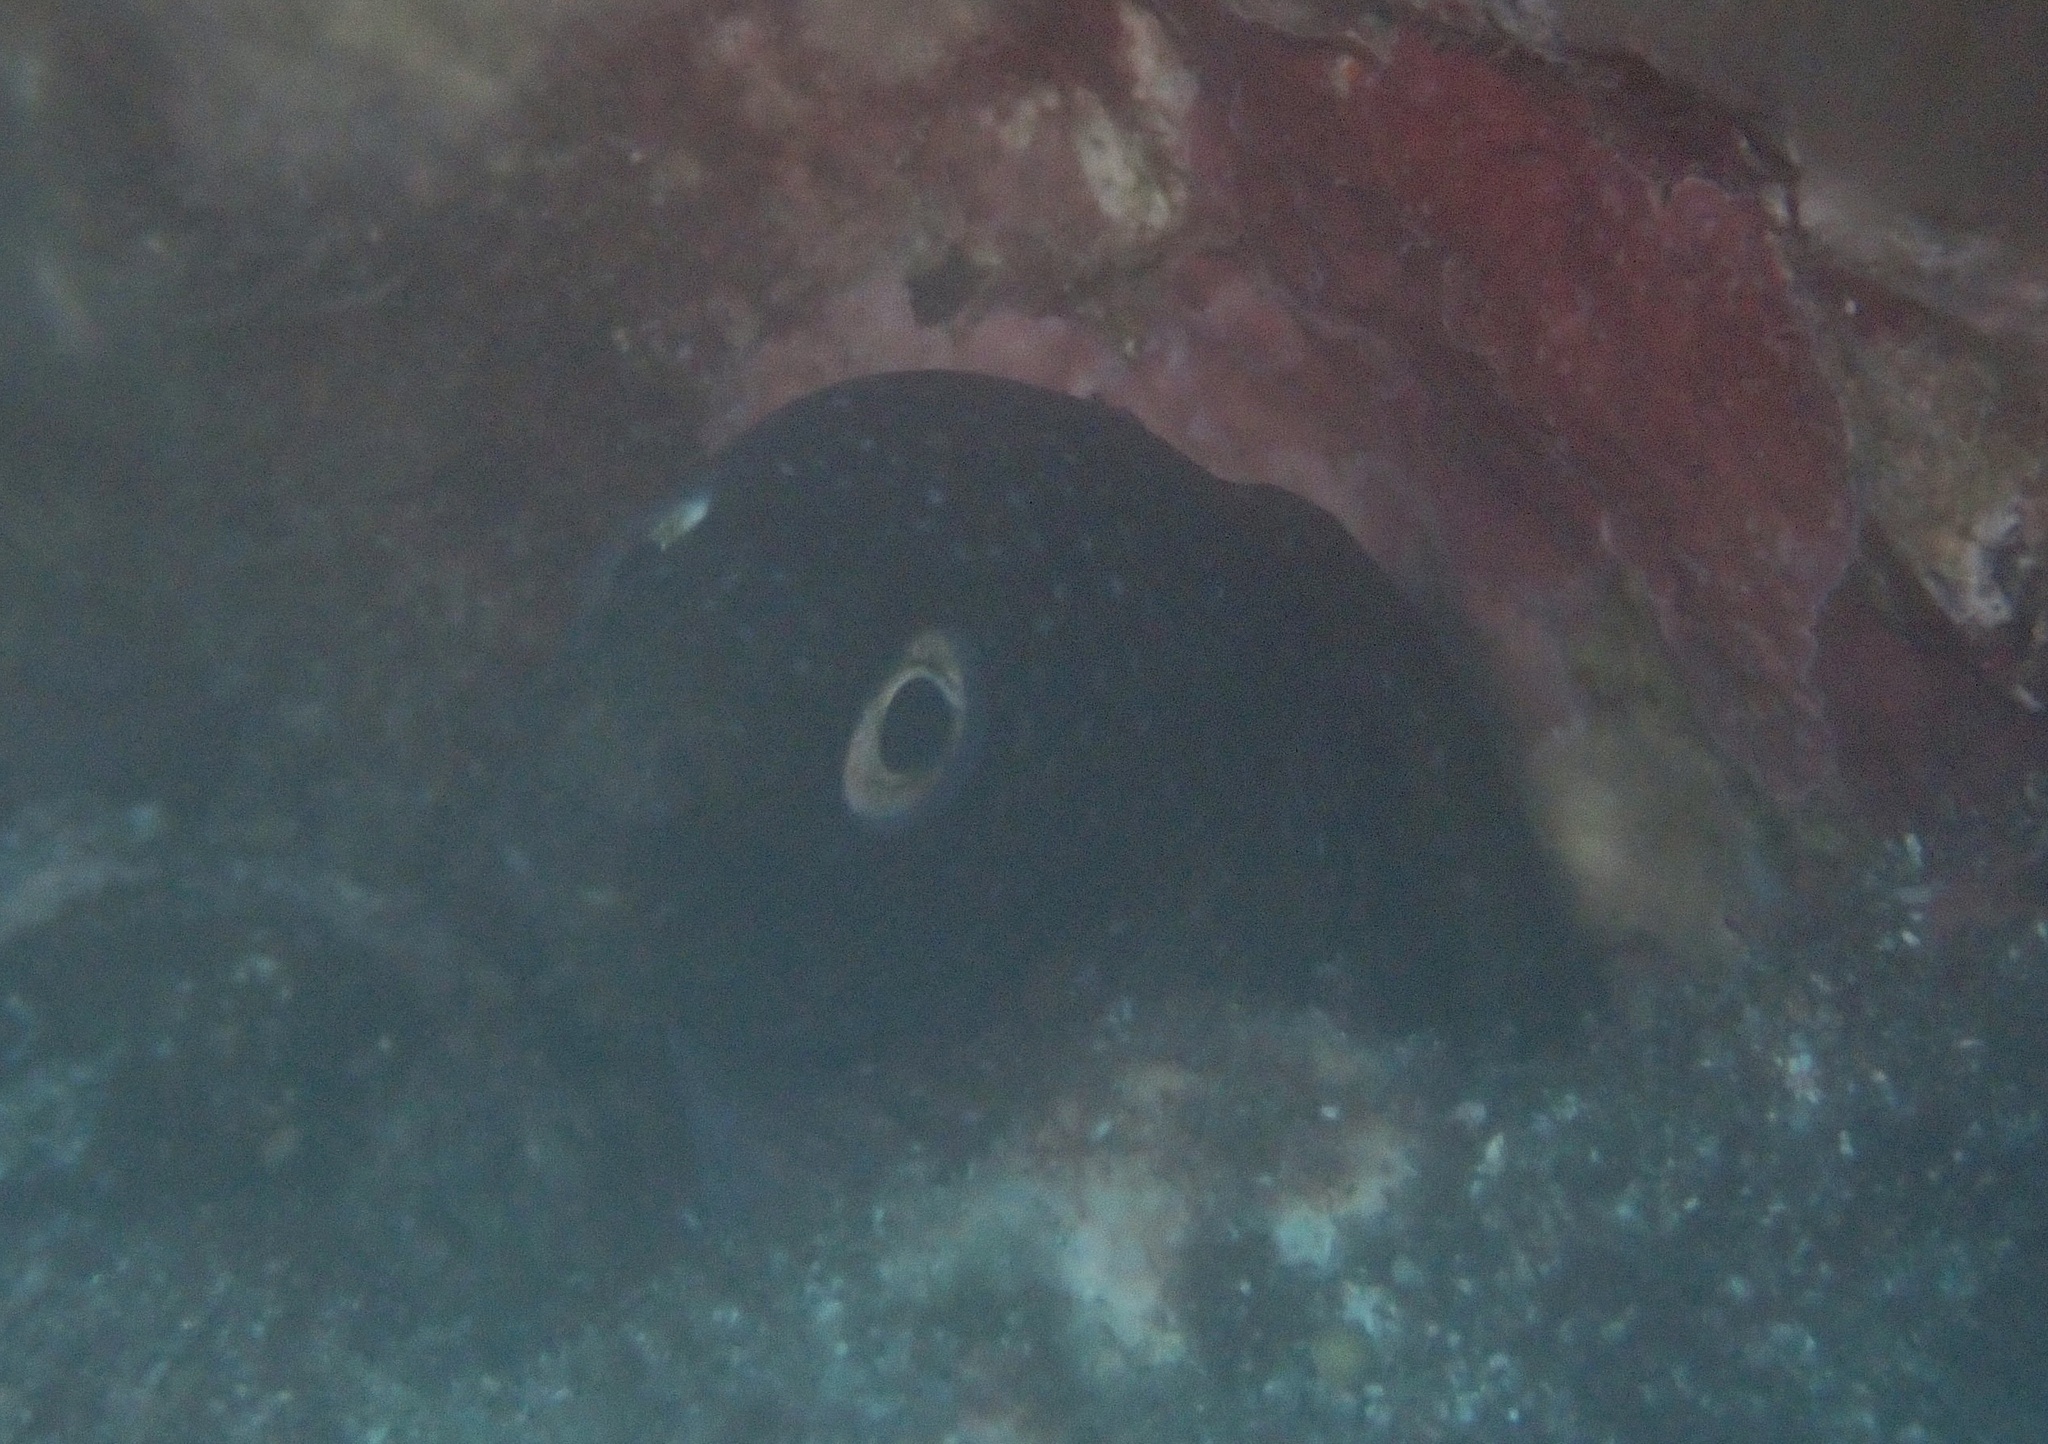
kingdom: Animalia
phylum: Chordata
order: Anguilliformes
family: Muraenidae
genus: Muraena
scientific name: Muraena augusti
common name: Mediterranean moray
